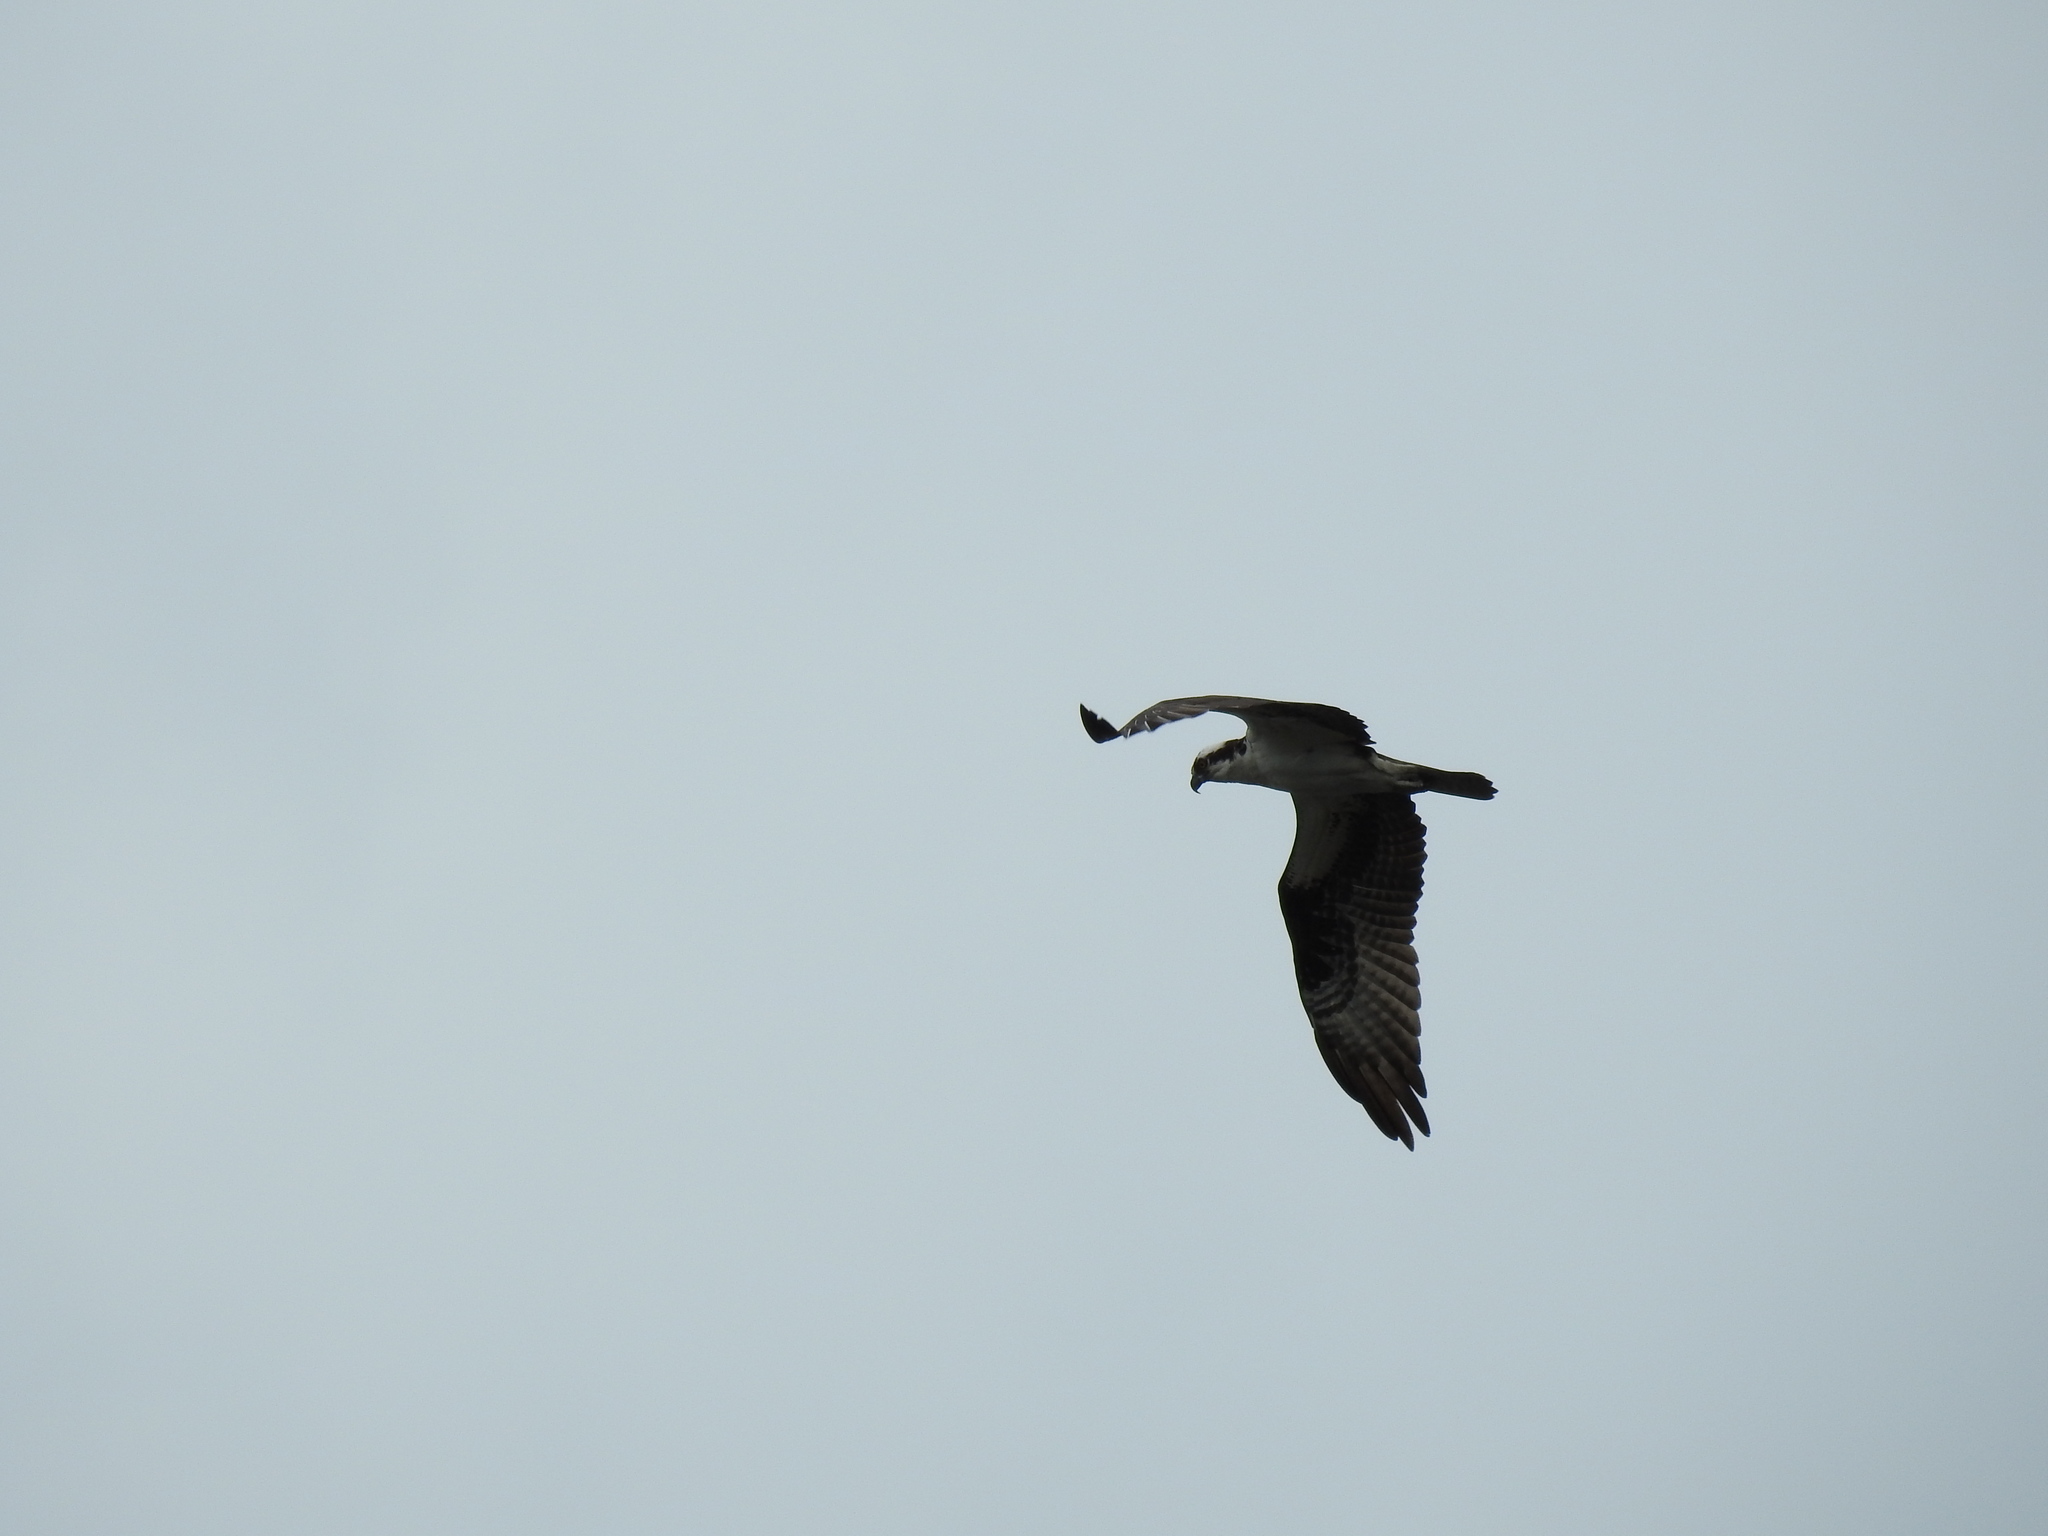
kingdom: Animalia
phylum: Chordata
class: Aves
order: Accipitriformes
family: Pandionidae
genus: Pandion
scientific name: Pandion haliaetus
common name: Osprey
